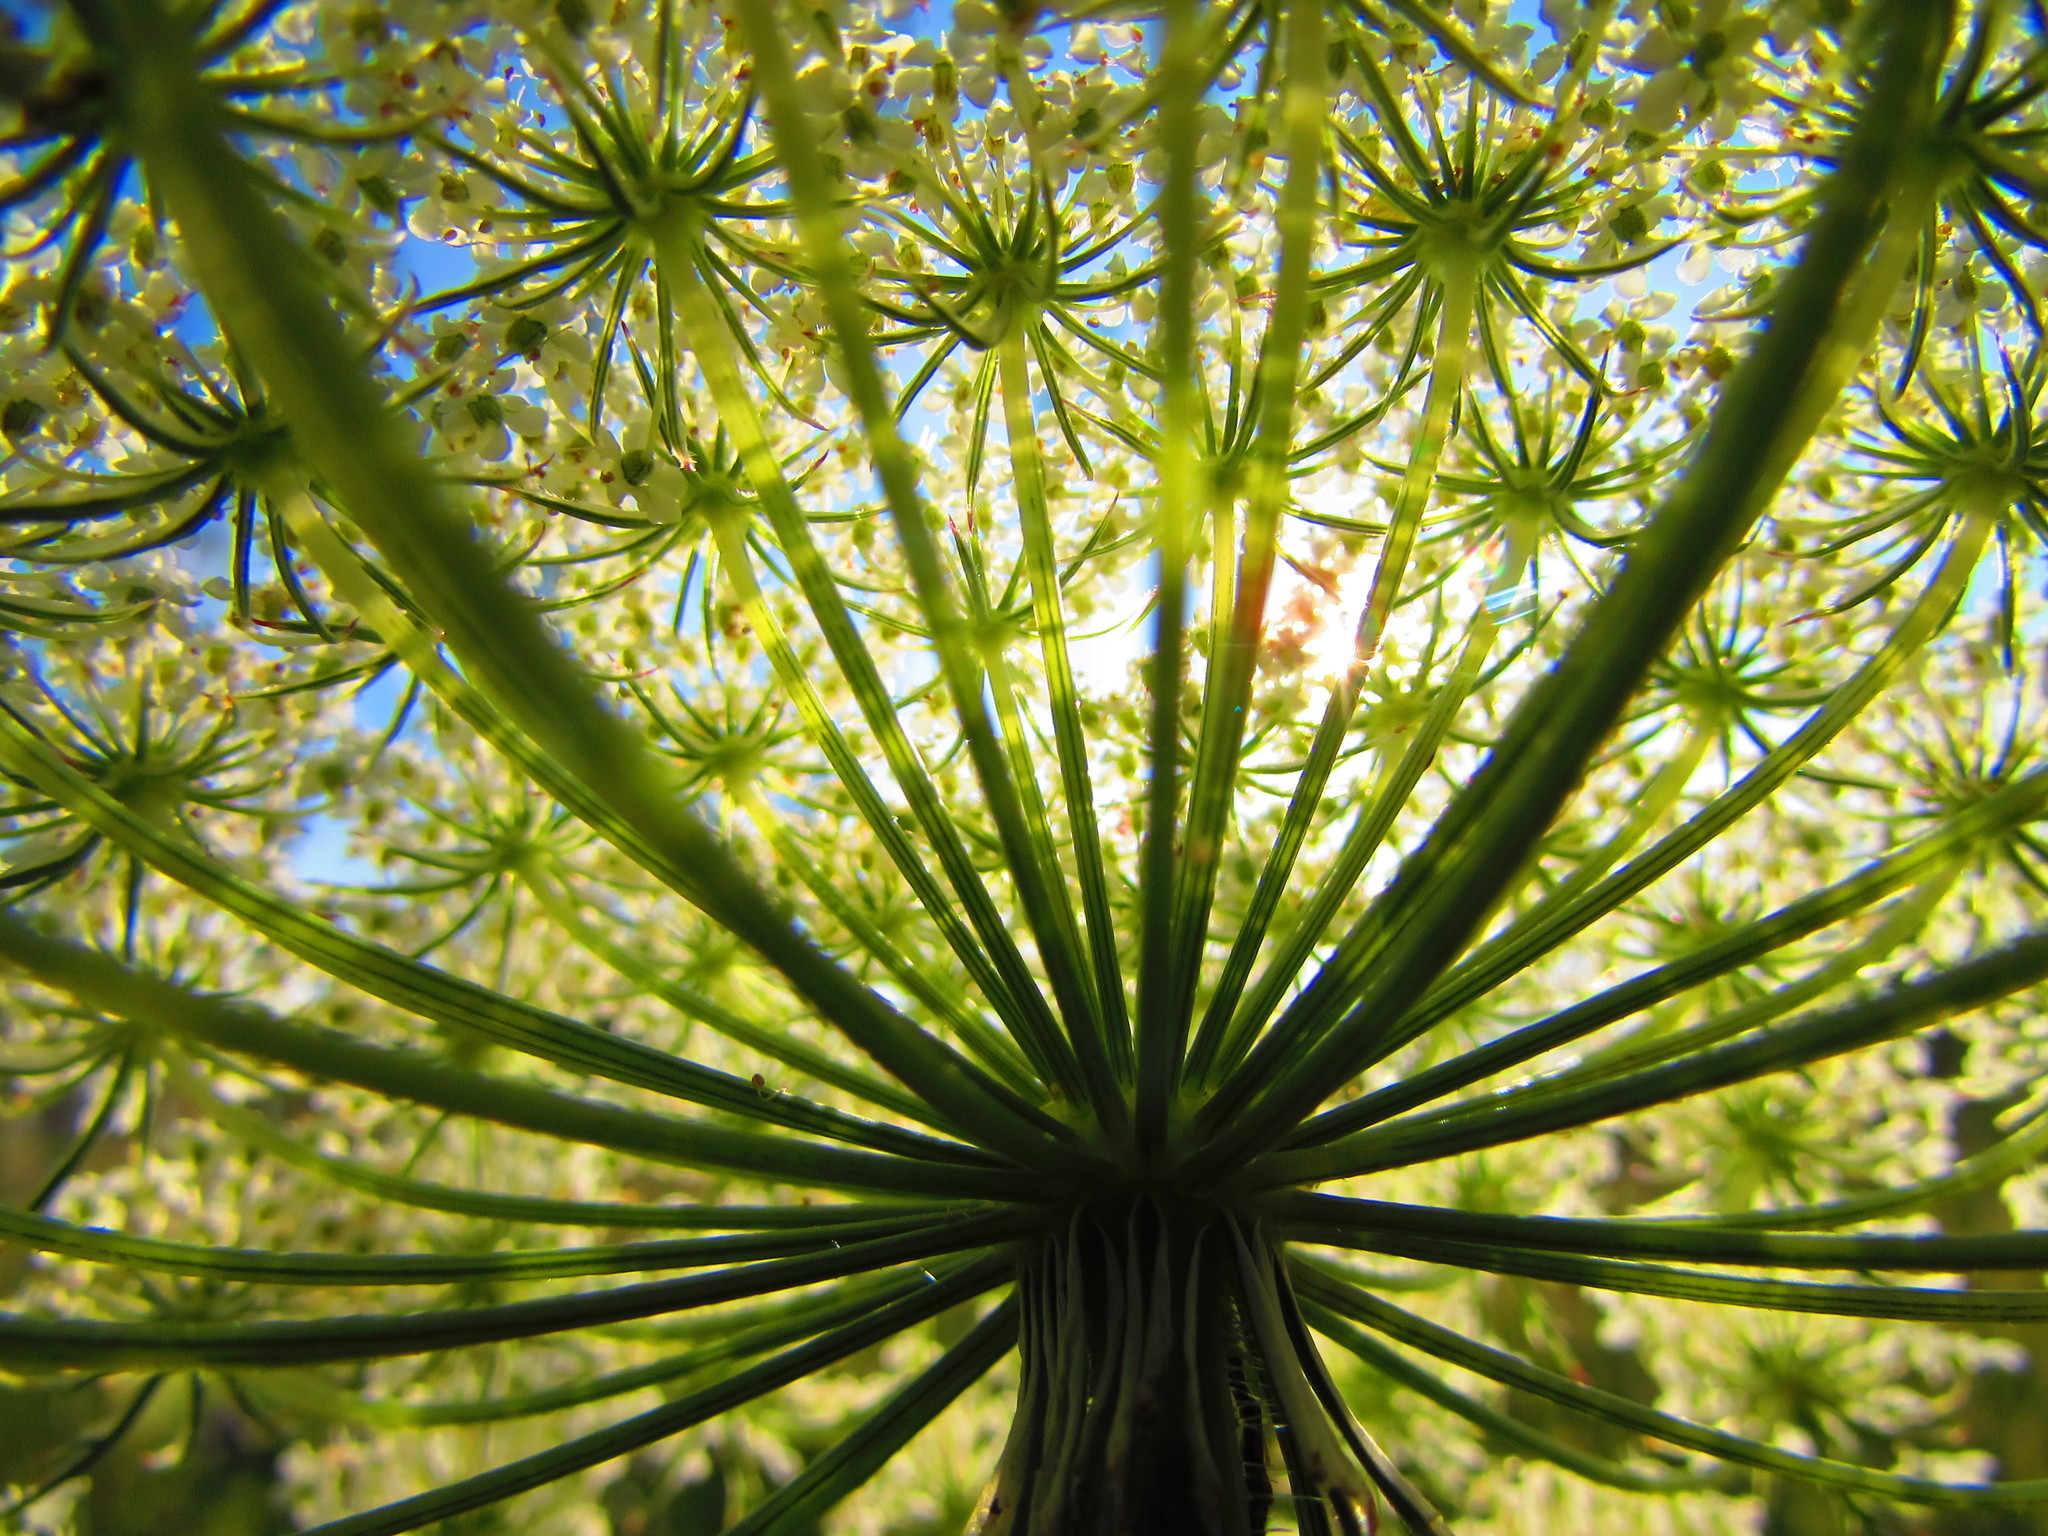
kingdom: Plantae
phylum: Tracheophyta
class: Magnoliopsida
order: Apiales
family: Apiaceae
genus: Daucus
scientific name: Daucus carota
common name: Wild carrot
